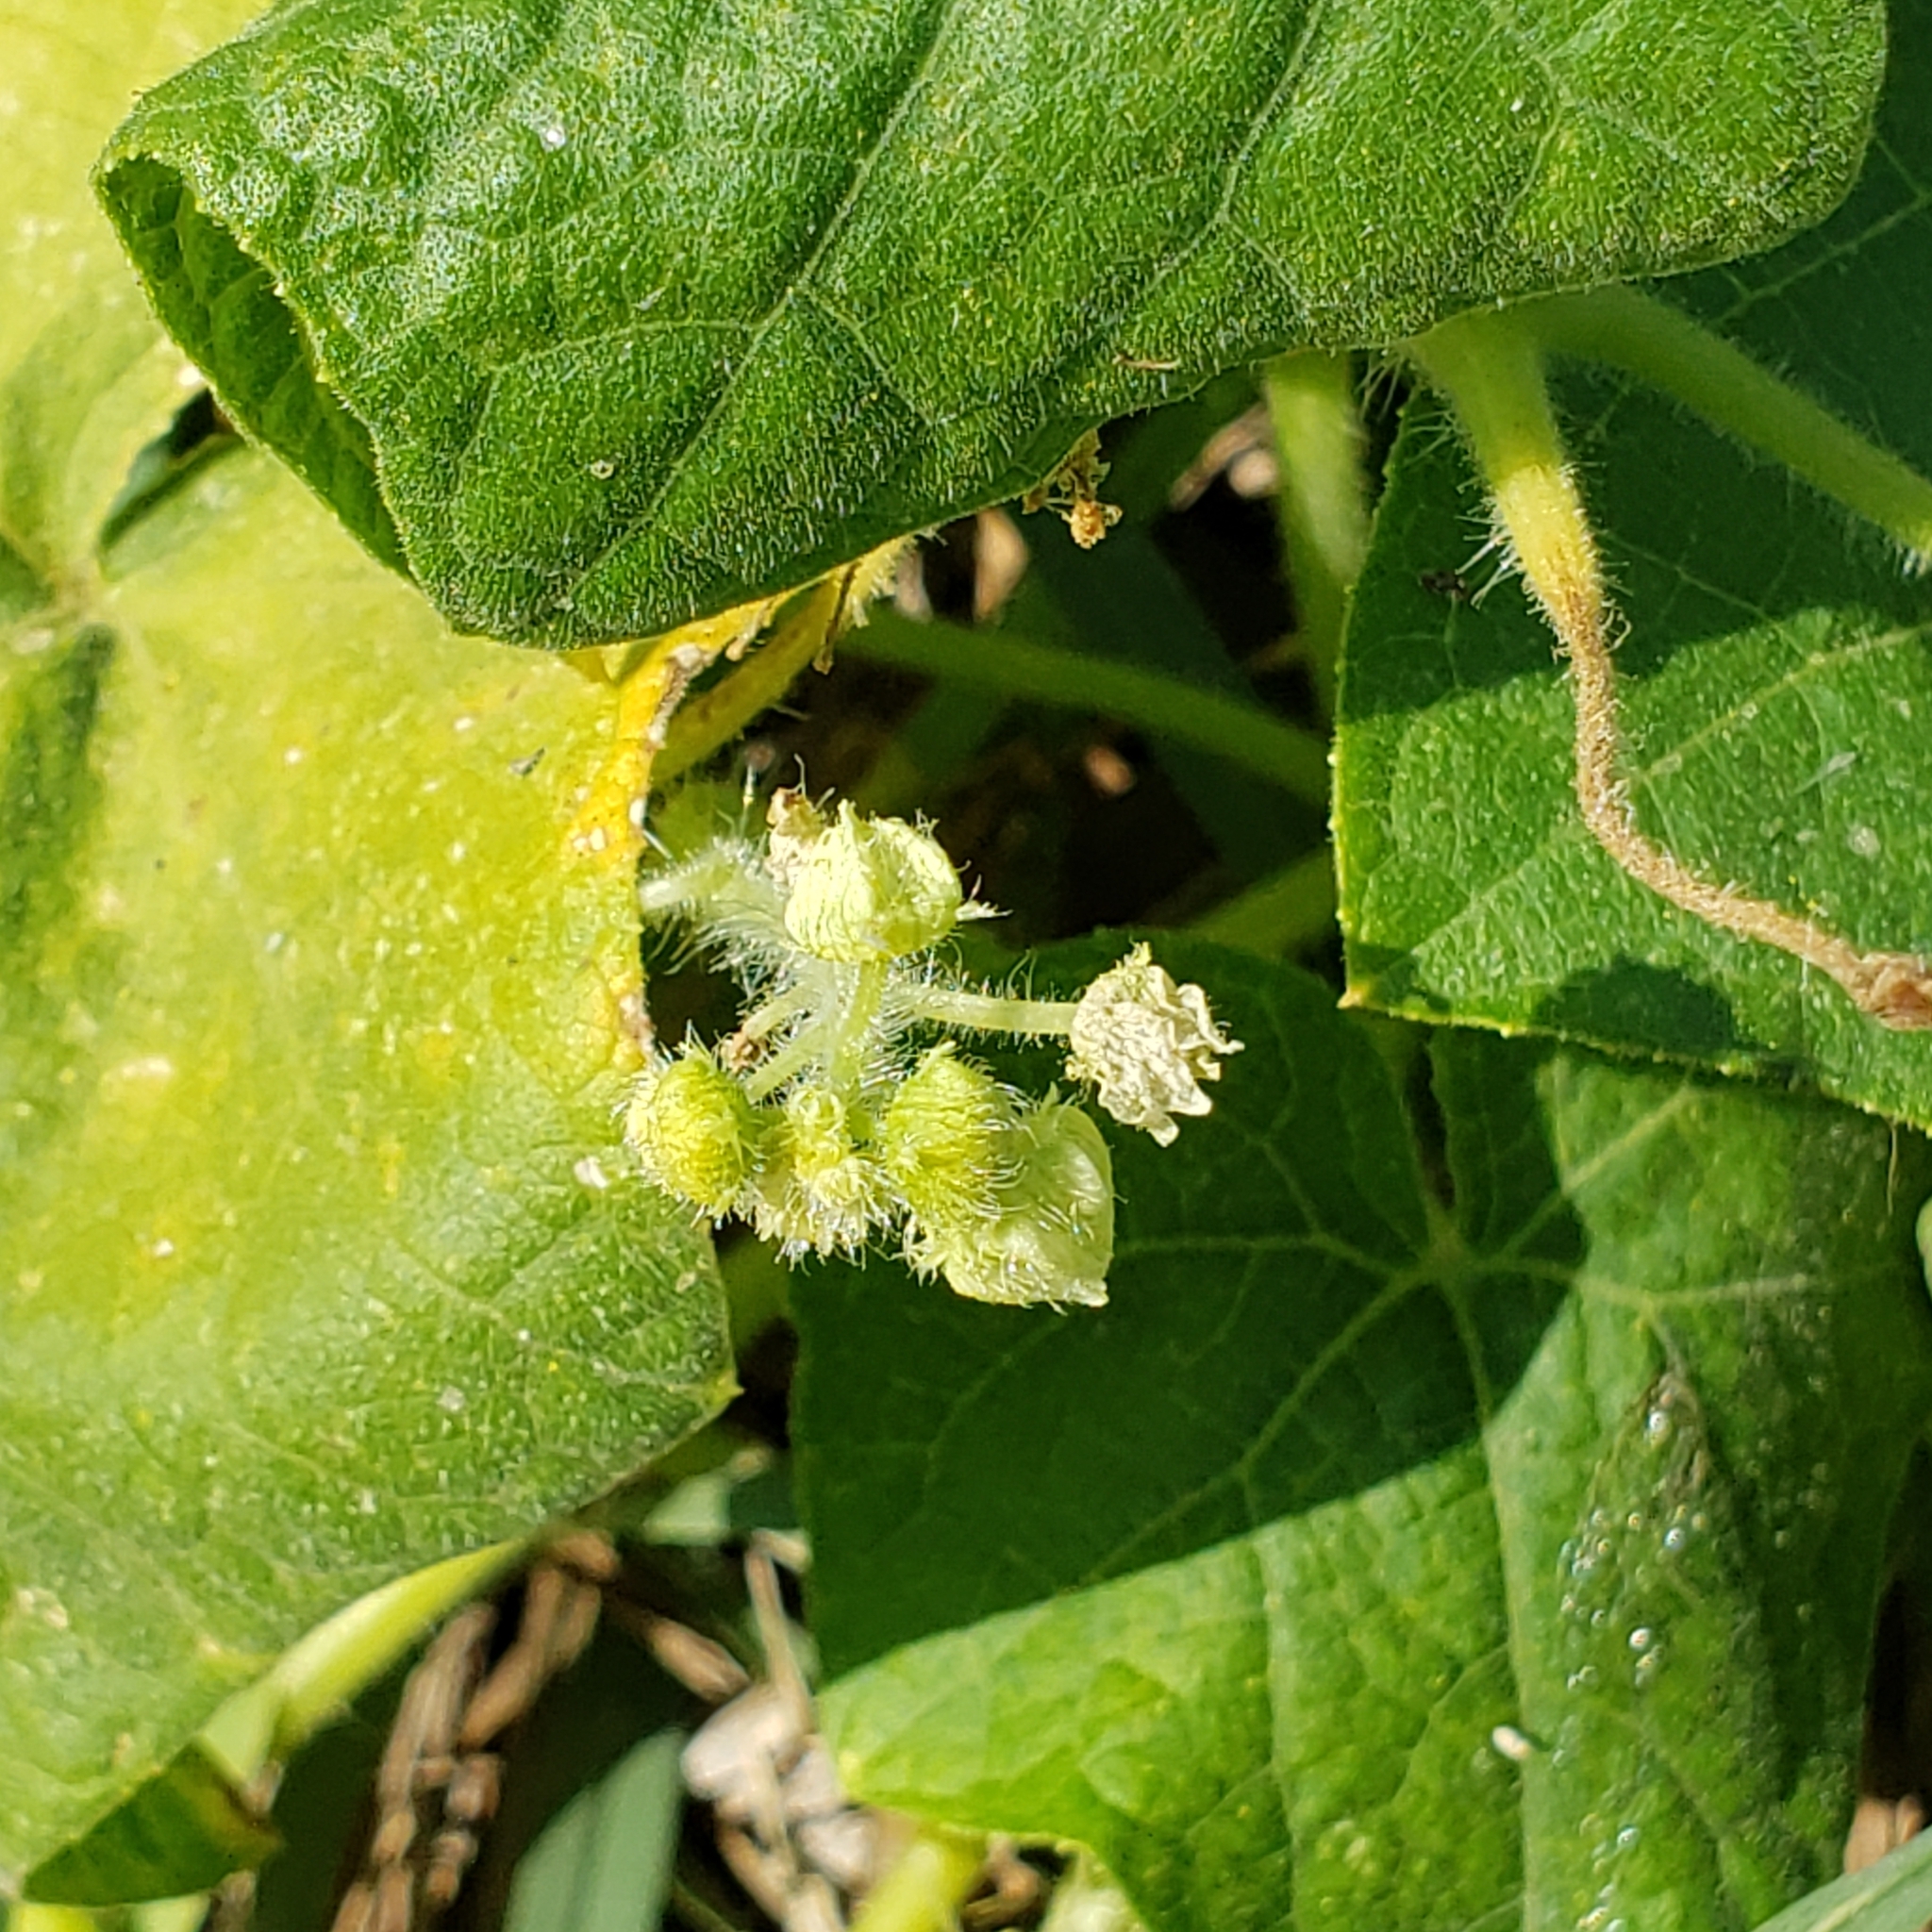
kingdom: Plantae
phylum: Tracheophyta
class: Magnoliopsida
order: Cucurbitales
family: Cucurbitaceae
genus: Sicyos
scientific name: Sicyos angulatus
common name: Angled burr cucumber
